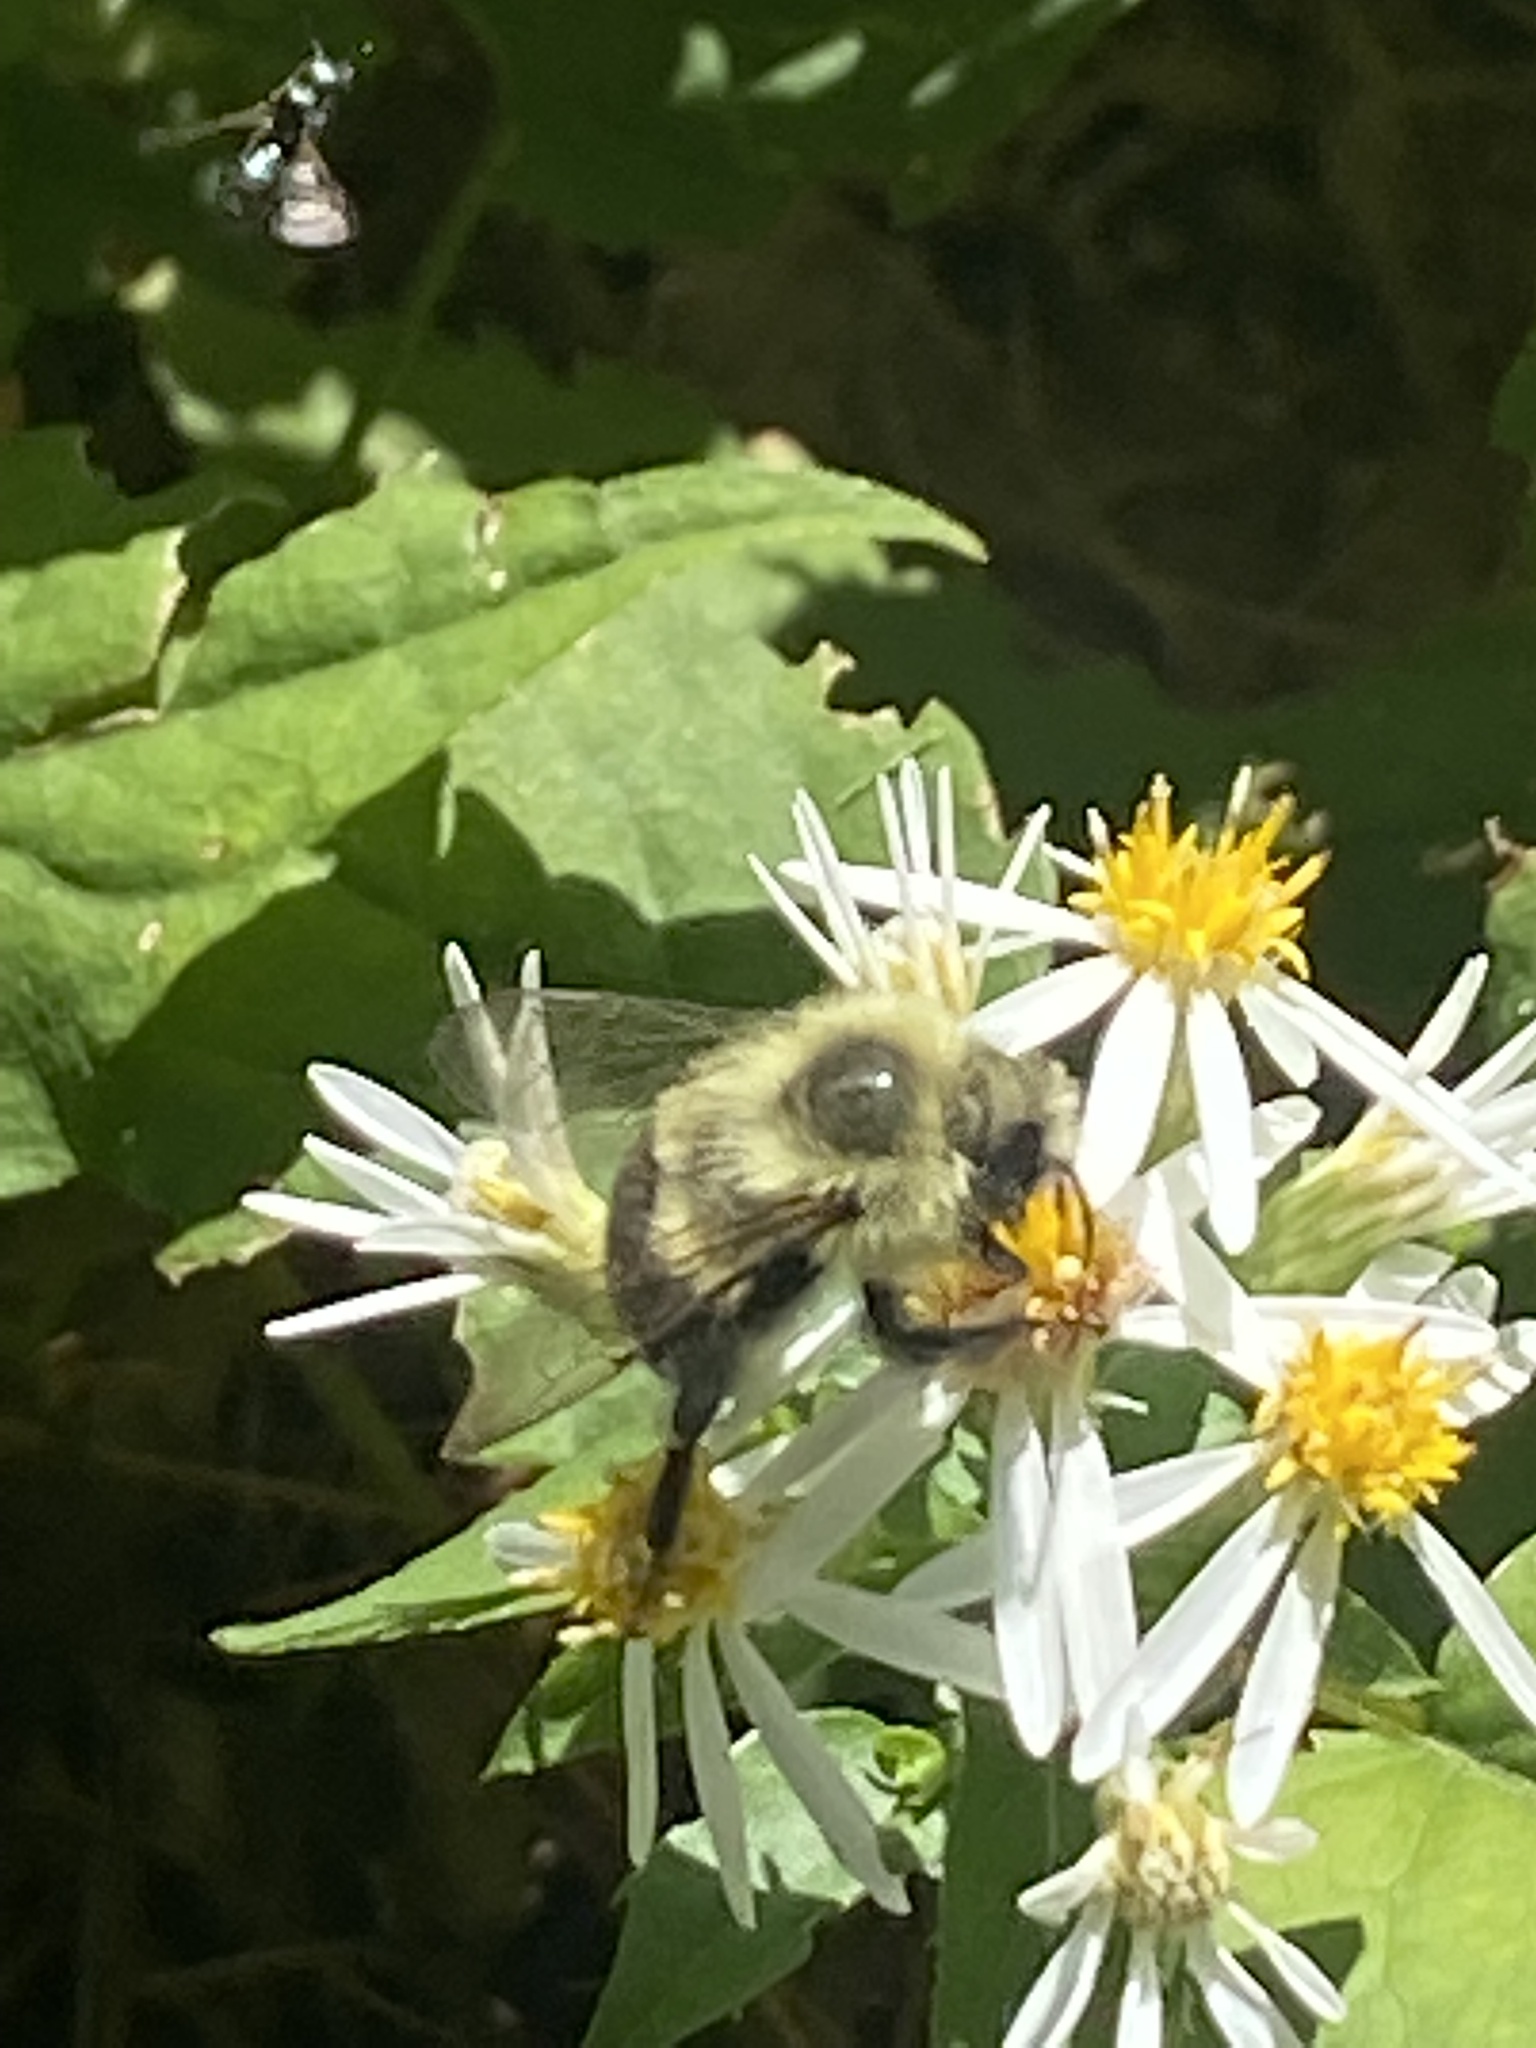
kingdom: Animalia
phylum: Arthropoda
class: Insecta
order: Hymenoptera
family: Apidae
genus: Bombus
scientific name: Bombus impatiens
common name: Common eastern bumble bee
